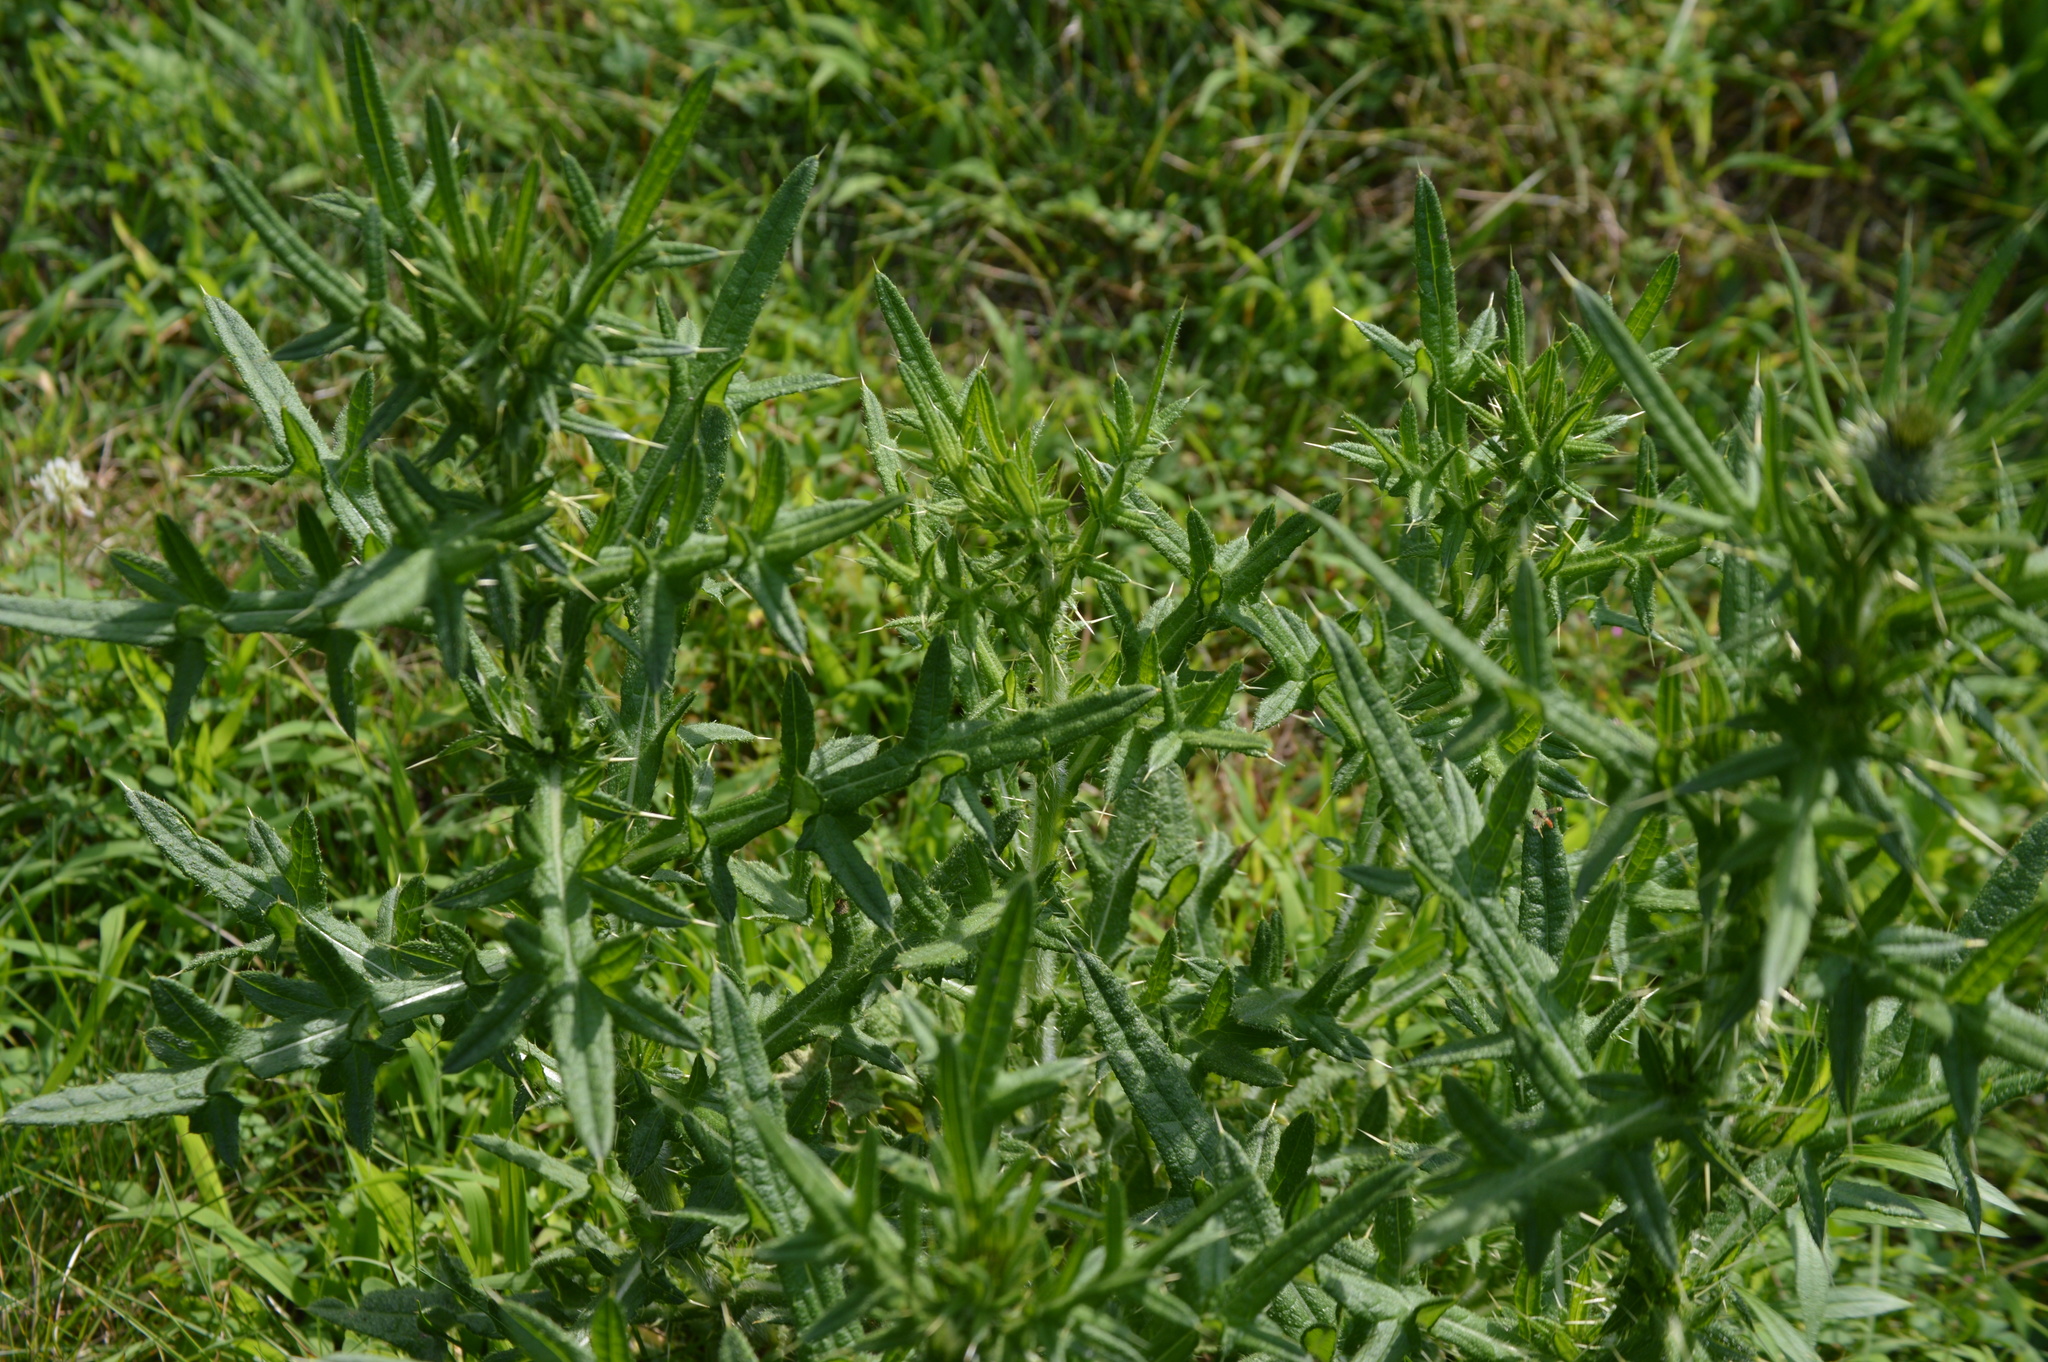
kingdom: Plantae
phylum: Tracheophyta
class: Magnoliopsida
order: Asterales
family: Asteraceae
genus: Cirsium
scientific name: Cirsium vulgare
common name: Bull thistle
